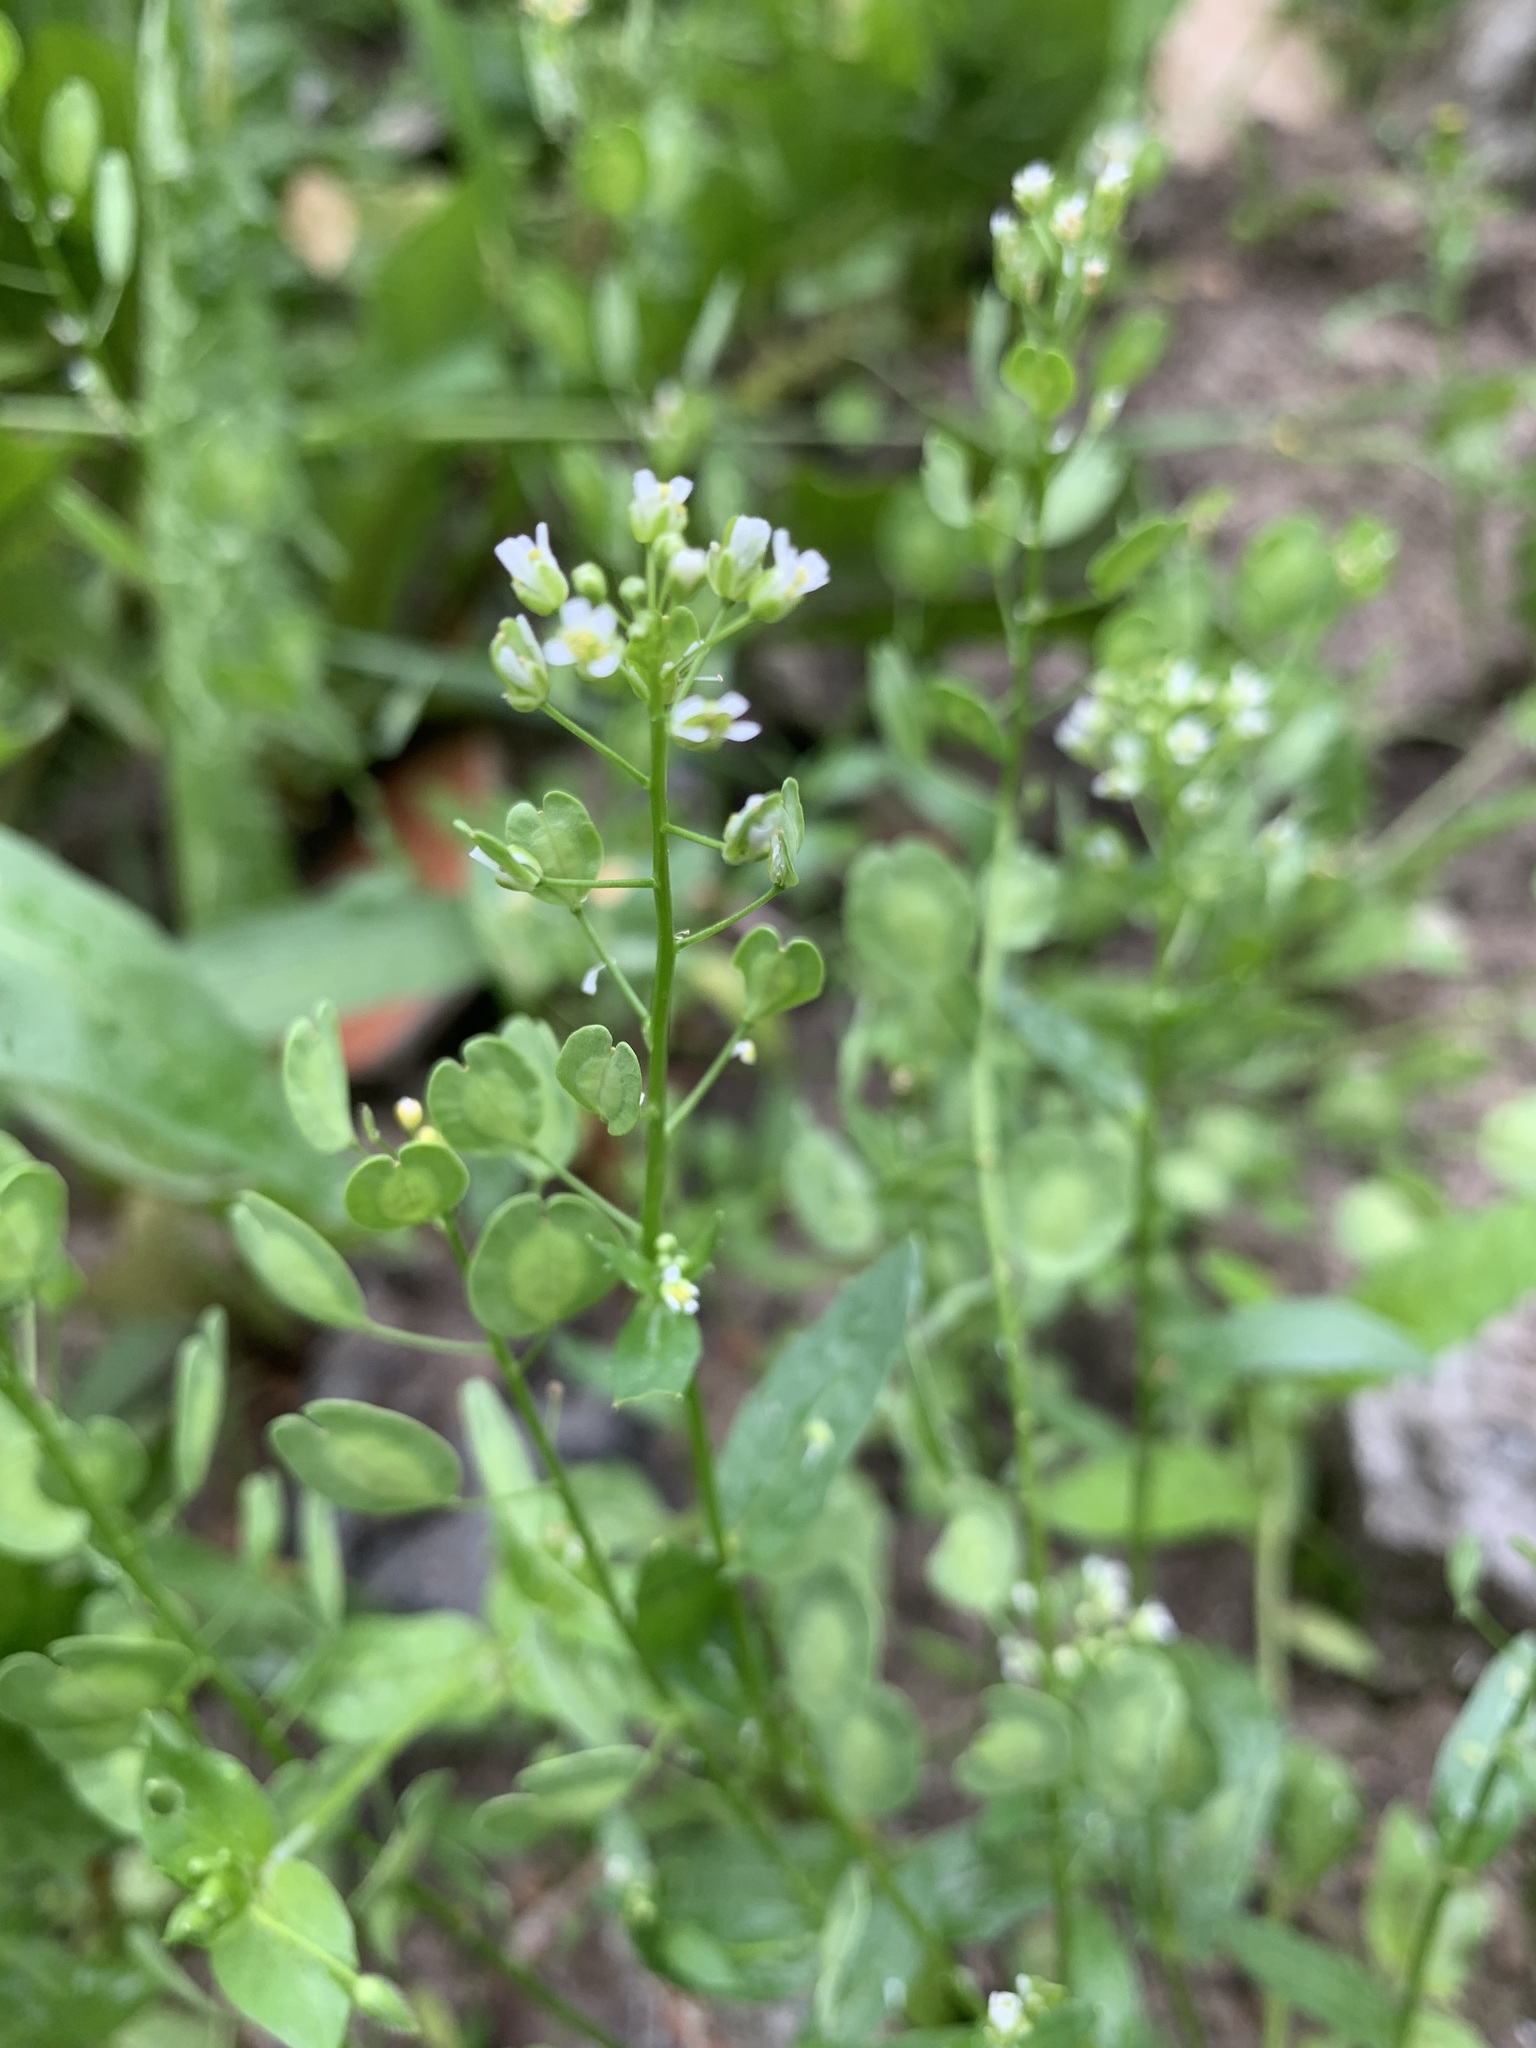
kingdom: Plantae
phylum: Tracheophyta
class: Magnoliopsida
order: Brassicales
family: Brassicaceae
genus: Thlaspi
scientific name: Thlaspi arvense
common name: Field pennycress
